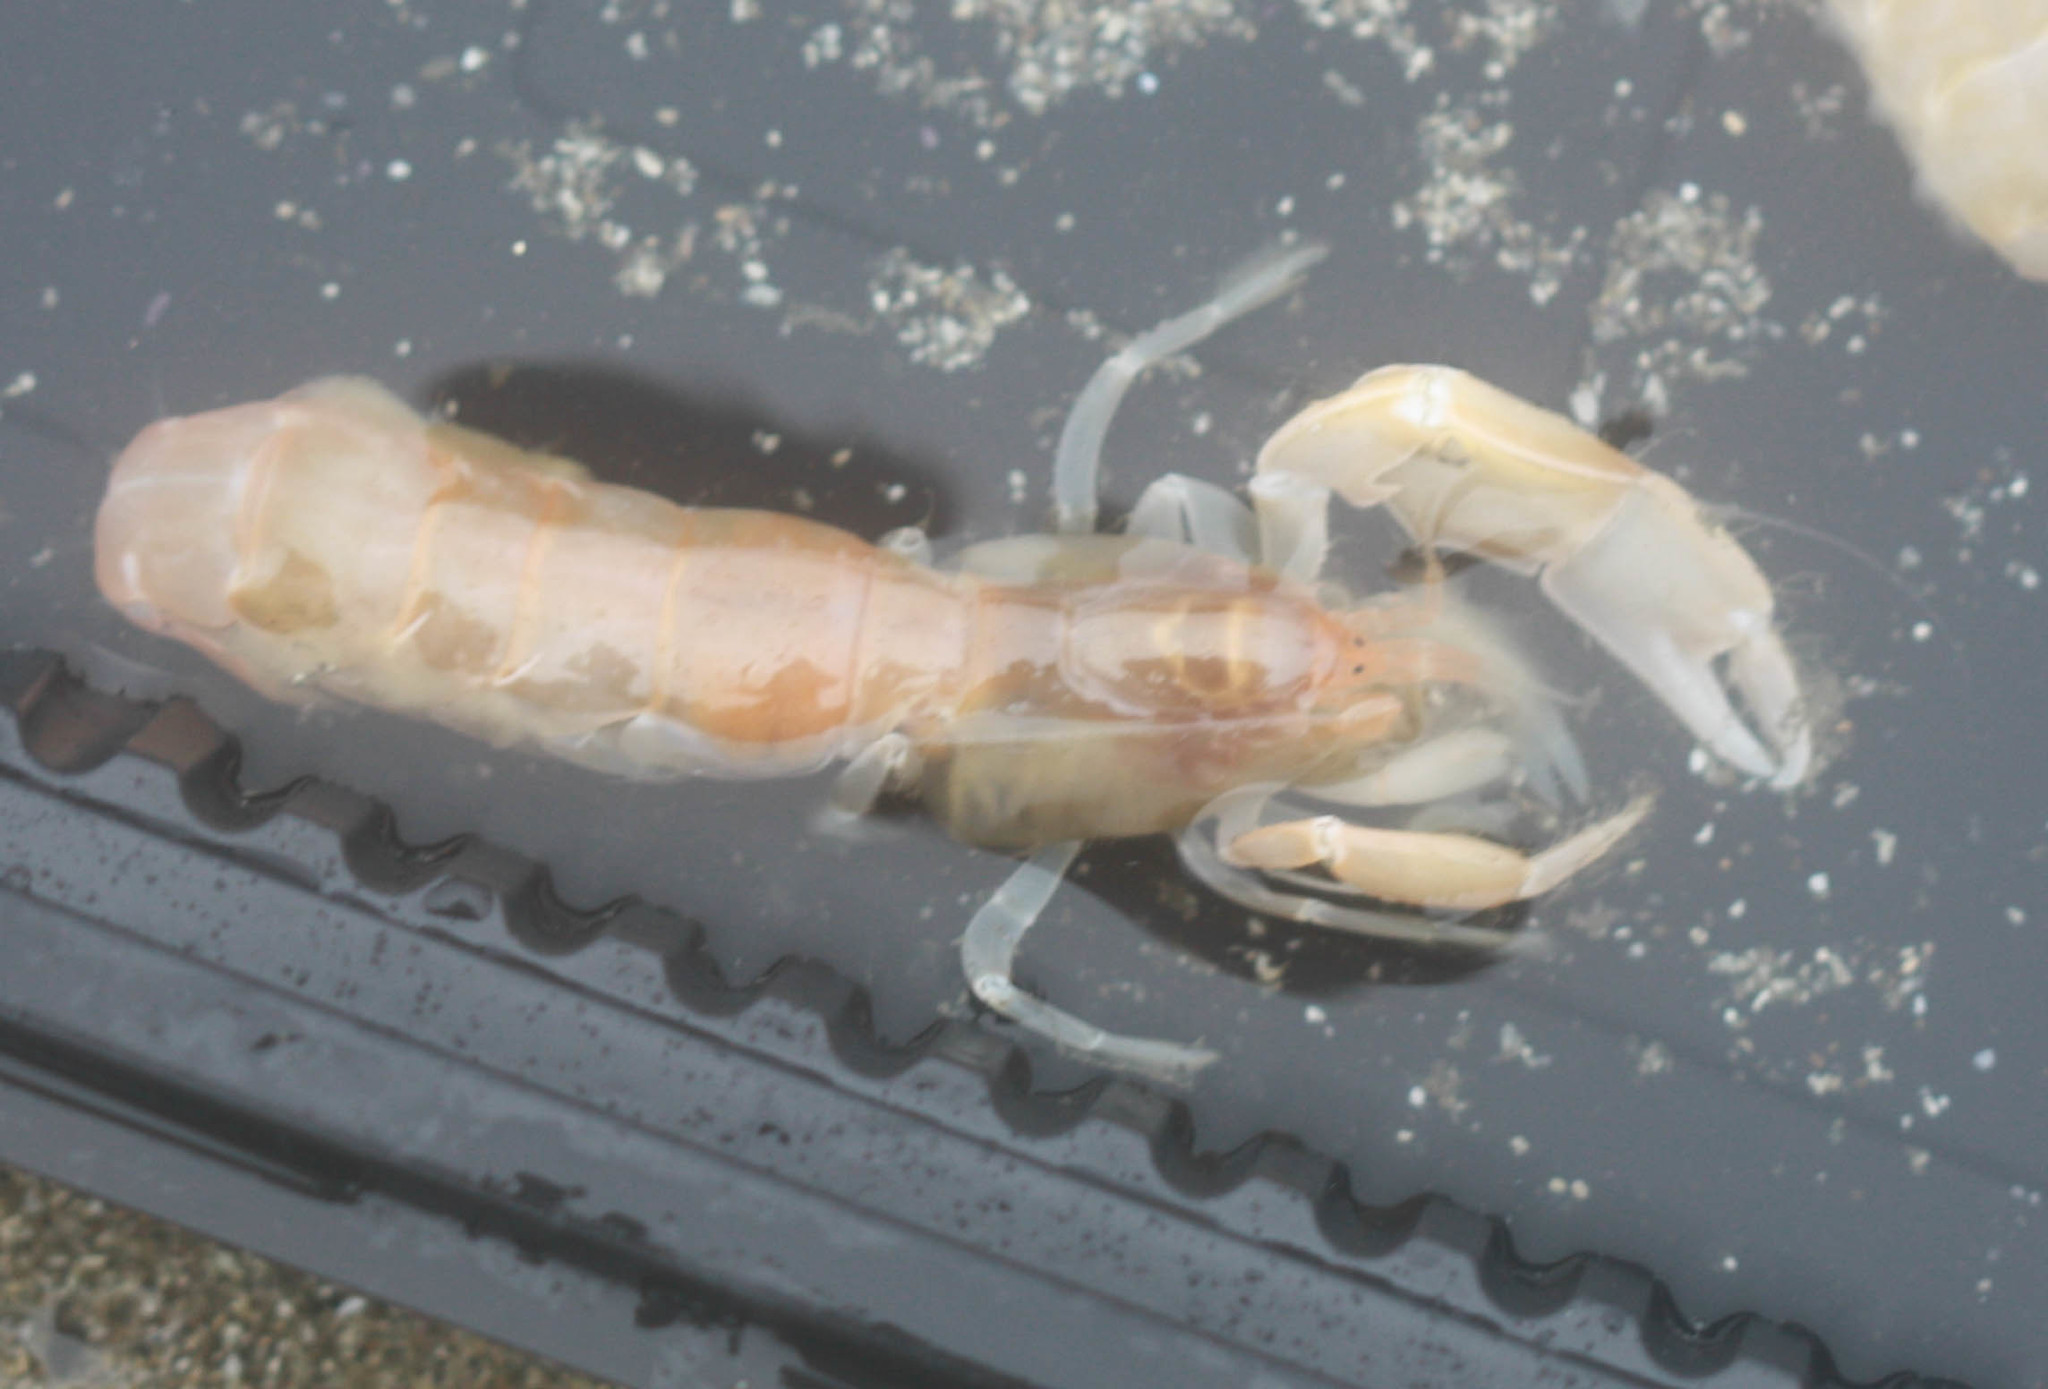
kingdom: Animalia
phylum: Arthropoda
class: Malacostraca
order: Decapoda
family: Callianassidae
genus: Neotrypaea
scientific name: Neotrypaea californiensis
